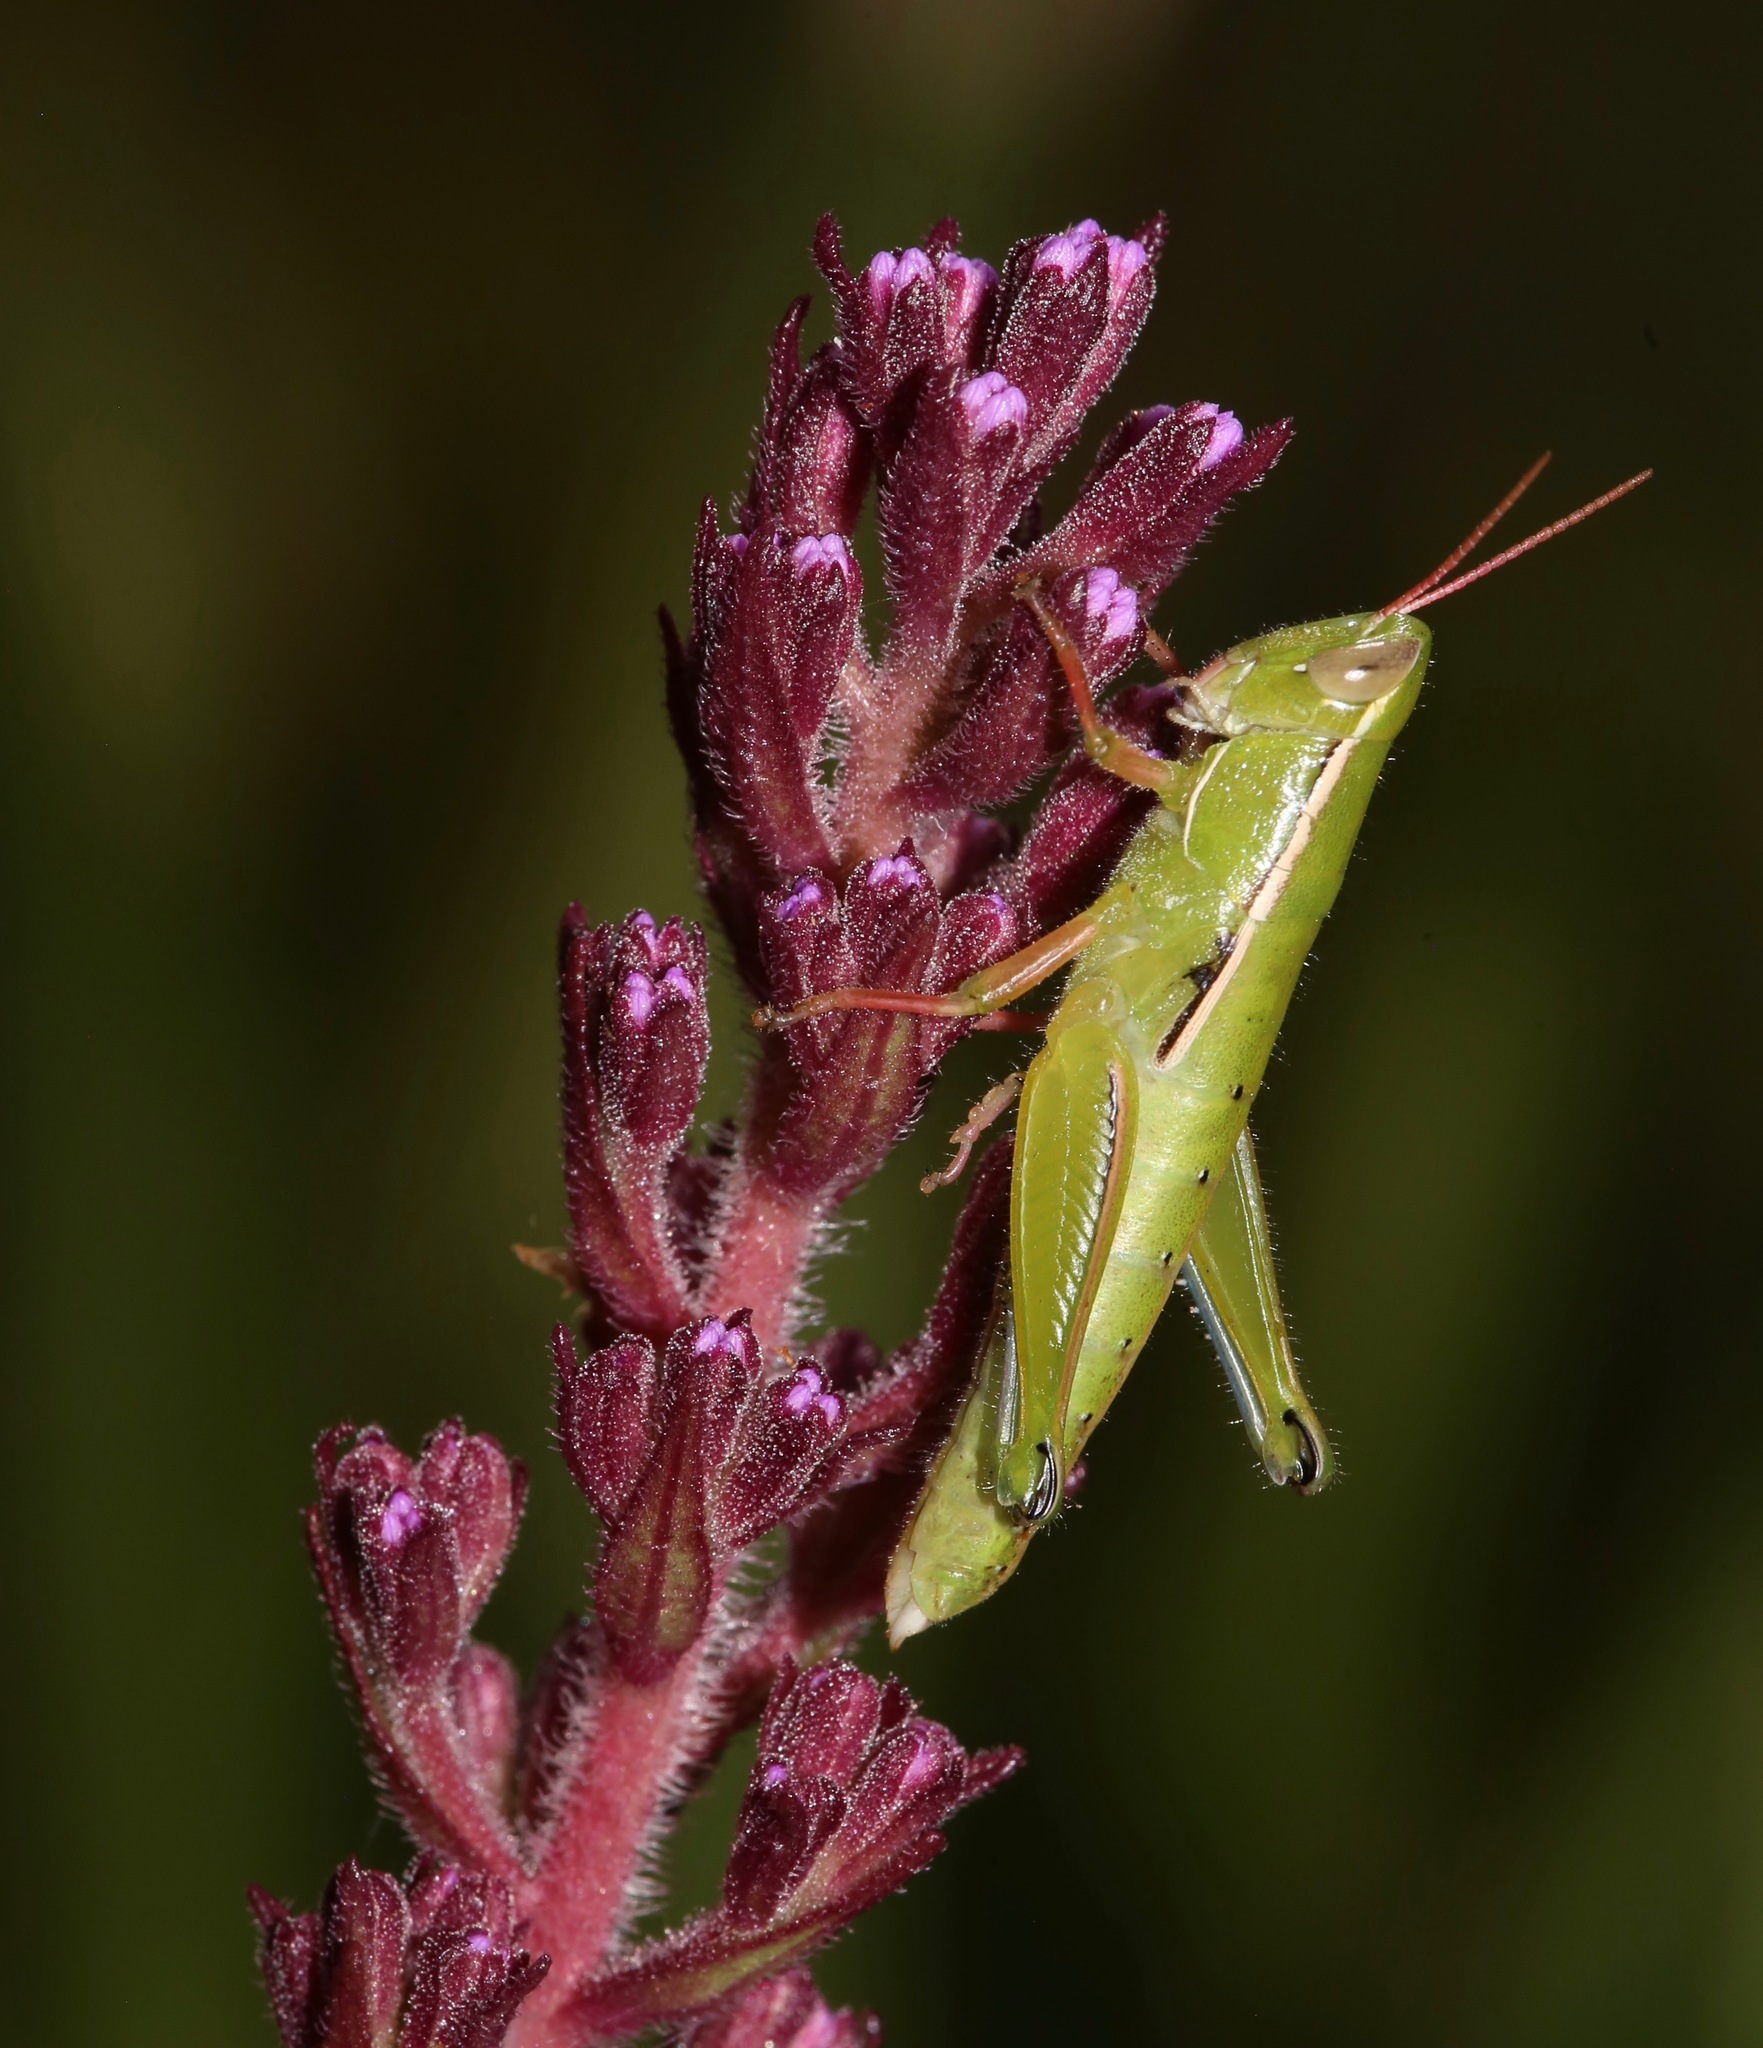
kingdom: Animalia
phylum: Arthropoda
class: Insecta
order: Orthoptera
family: Acrididae
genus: Aptenopedes
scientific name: Aptenopedes sphenarioides
